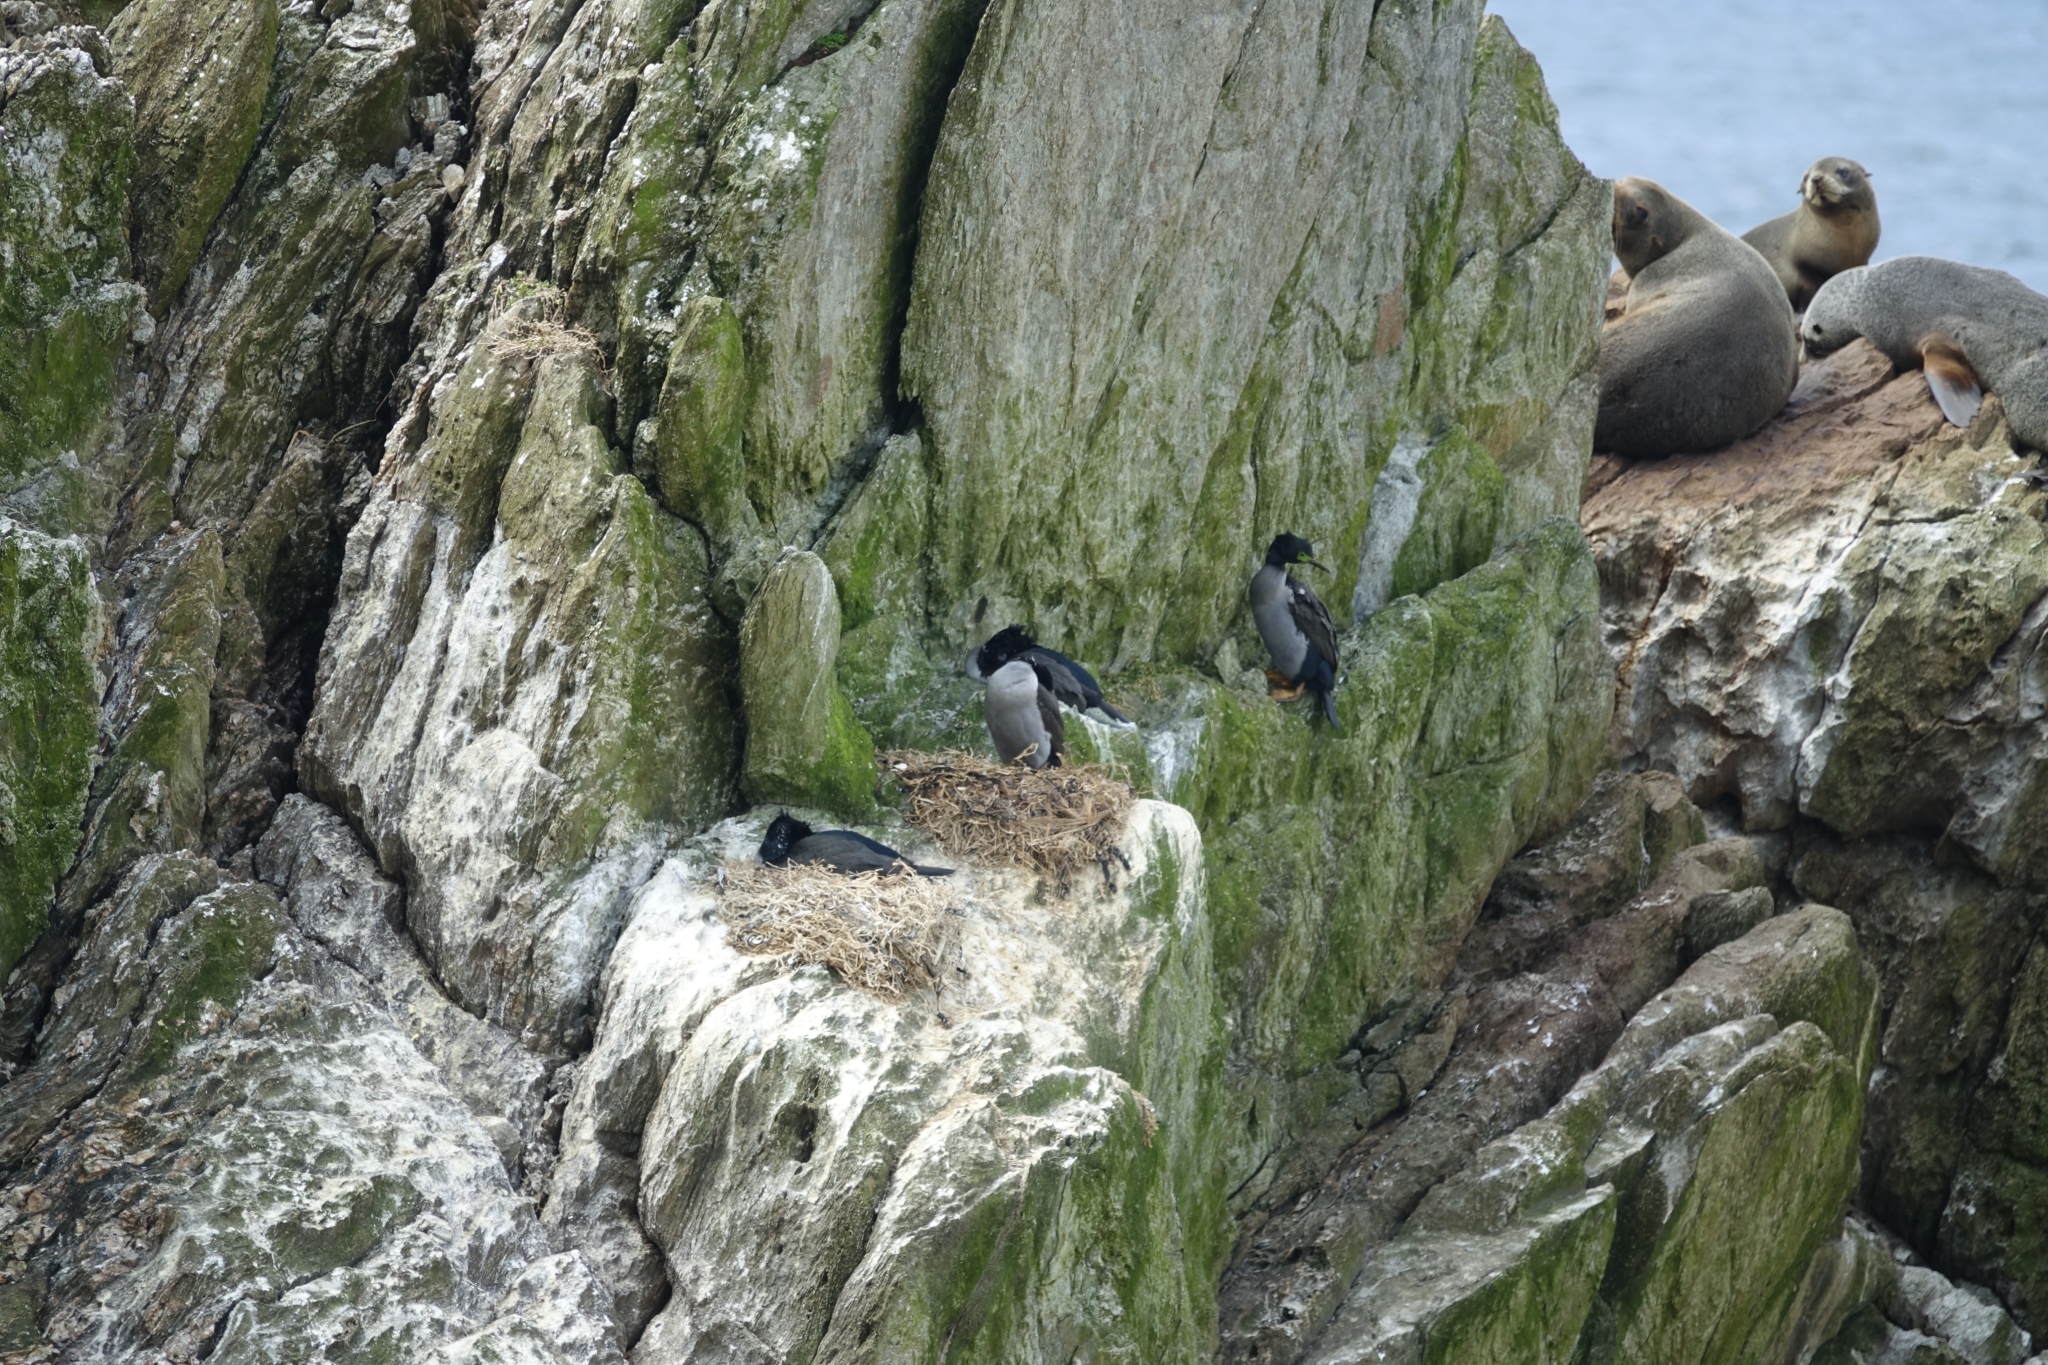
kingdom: Animalia
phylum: Chordata
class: Aves
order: Suliformes
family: Phalacrocoracidae
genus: Phalacrocorax
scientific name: Phalacrocorax featherstoni
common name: Pitt shag
